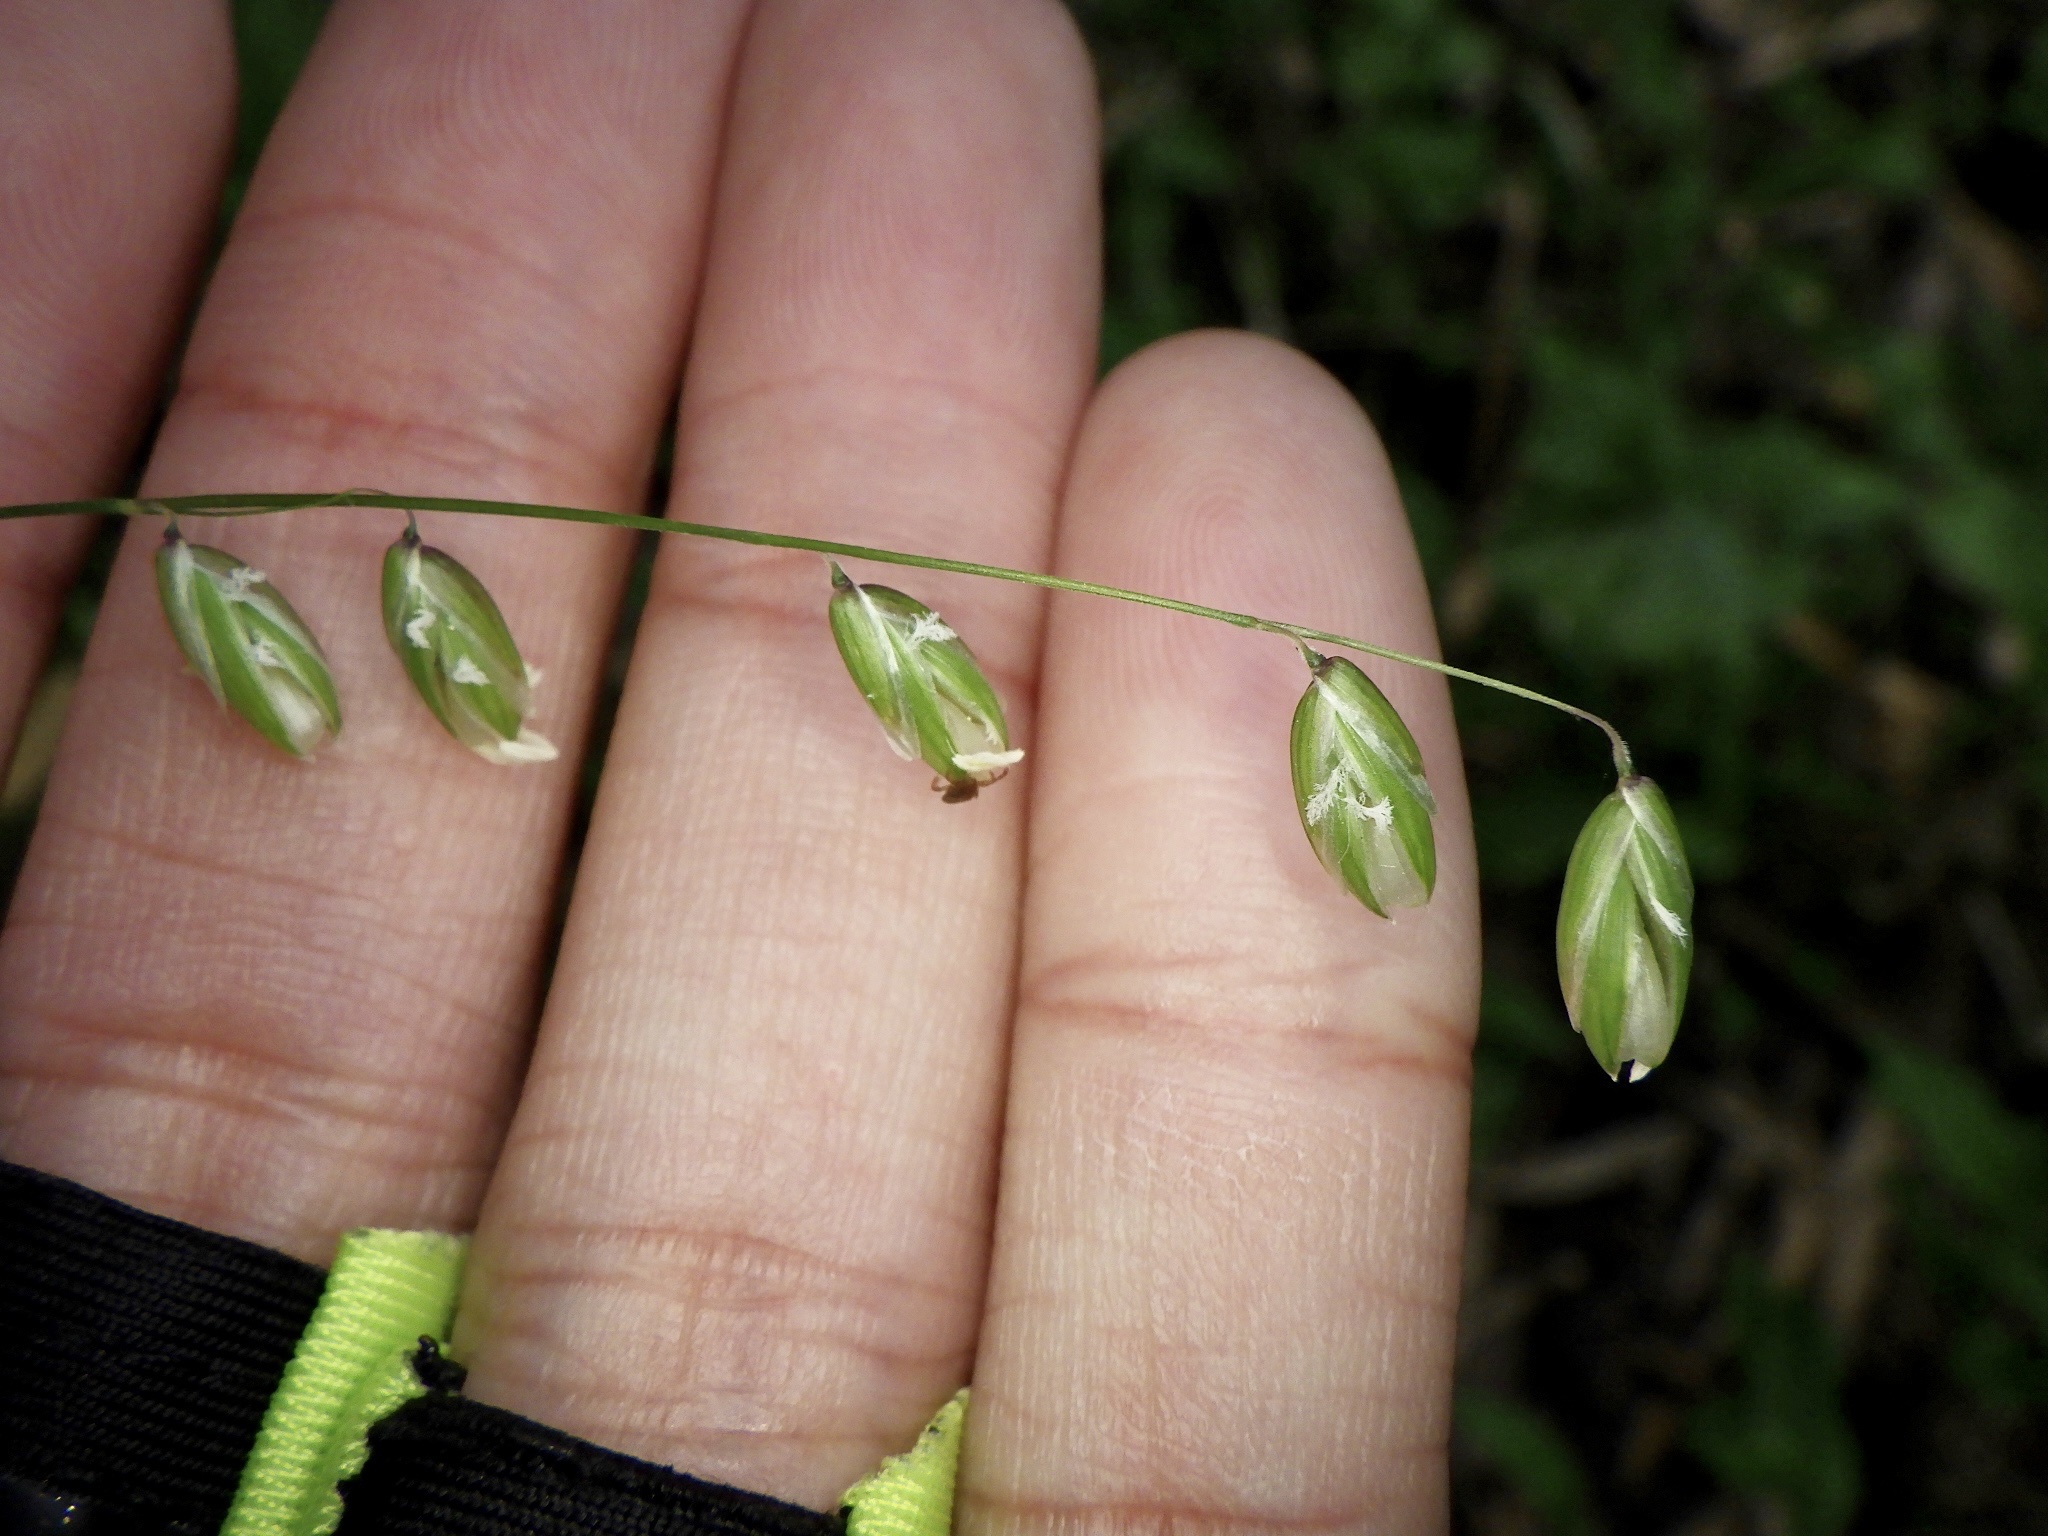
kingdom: Plantae
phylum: Tracheophyta
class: Liliopsida
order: Poales
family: Poaceae
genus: Melica
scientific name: Melica nutans
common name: Mountain melick
